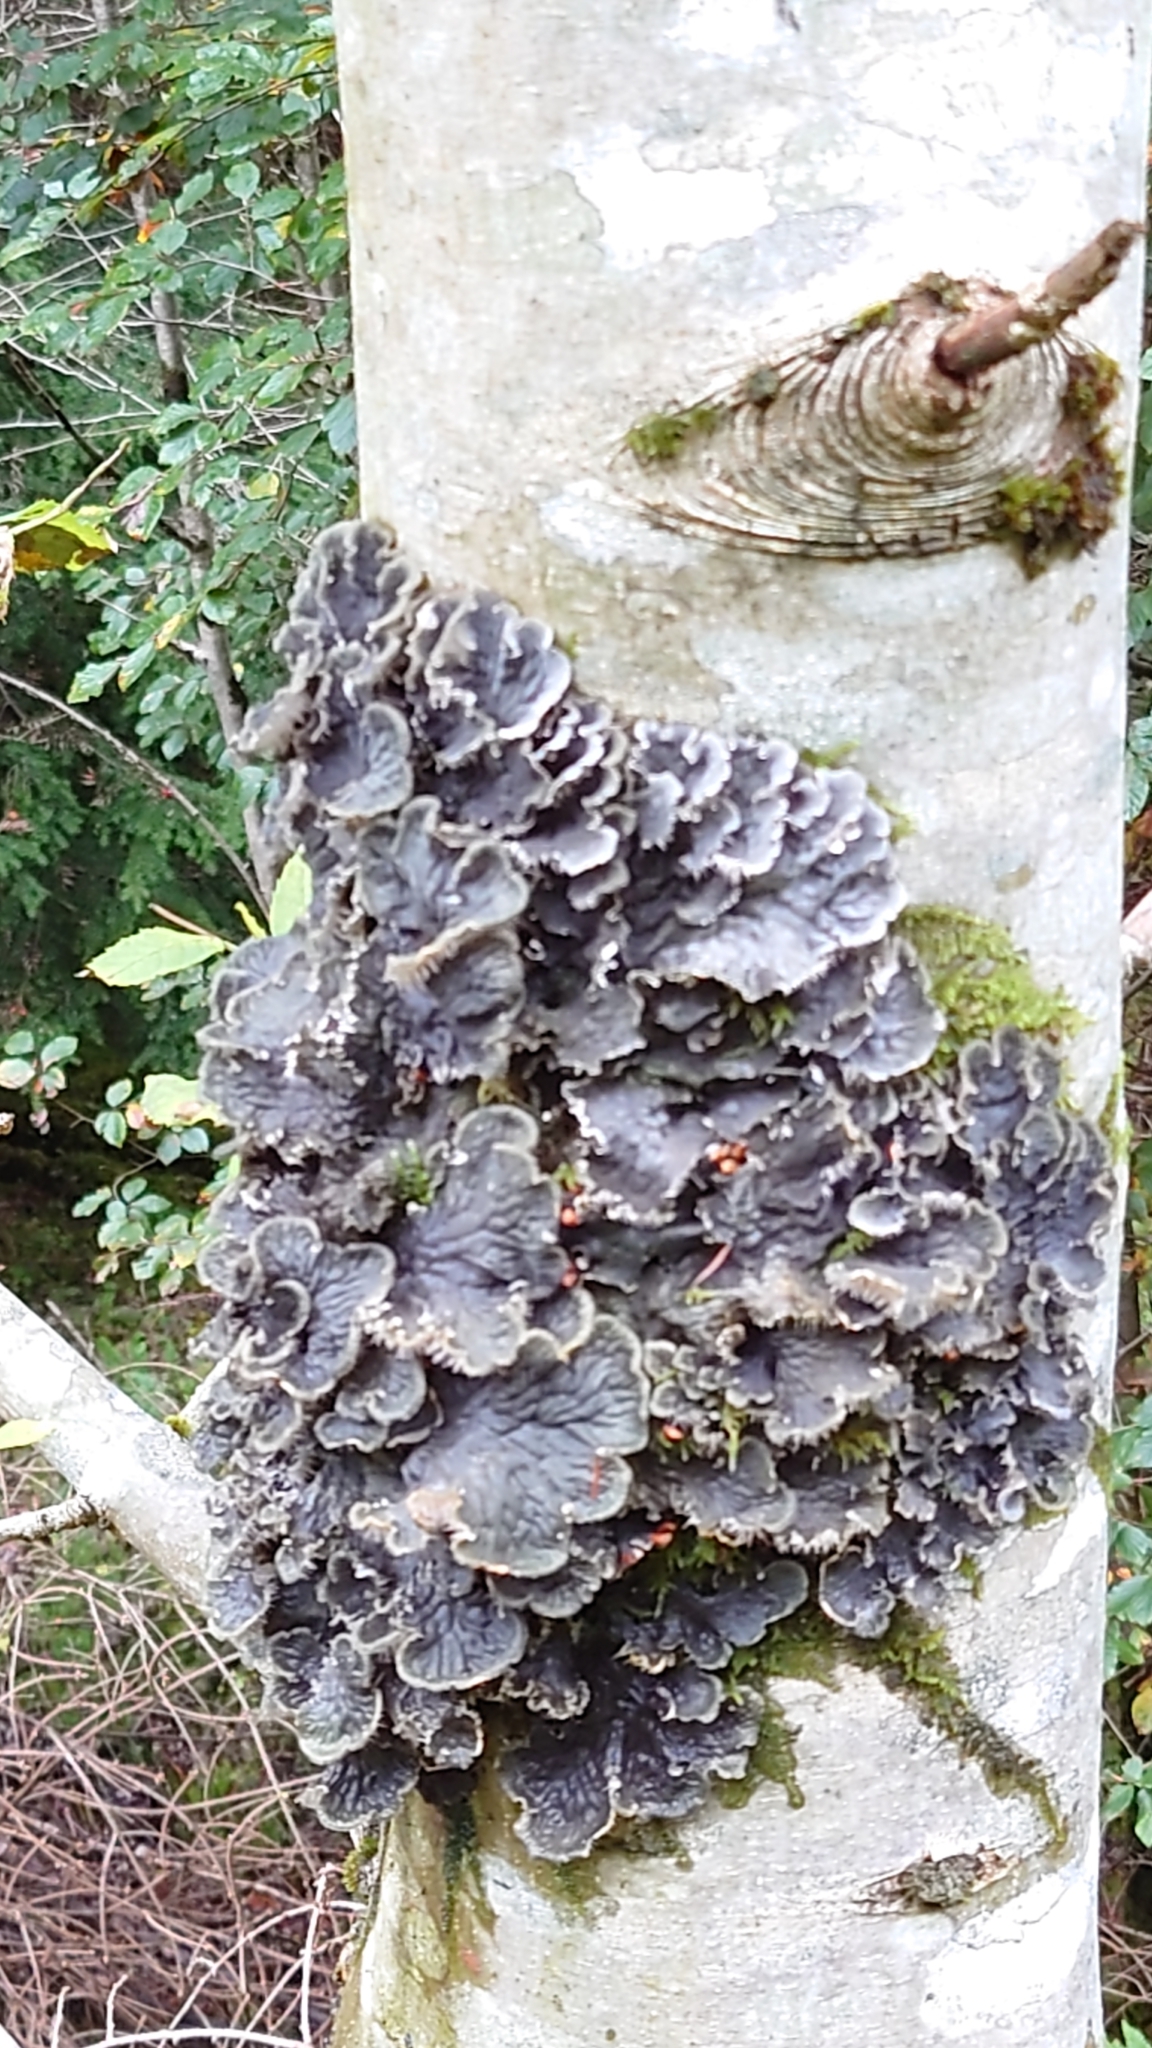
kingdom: Fungi
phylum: Ascomycota
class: Lecanoromycetes
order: Peltigerales
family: Peltigeraceae
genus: Peltigera
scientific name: Peltigera
